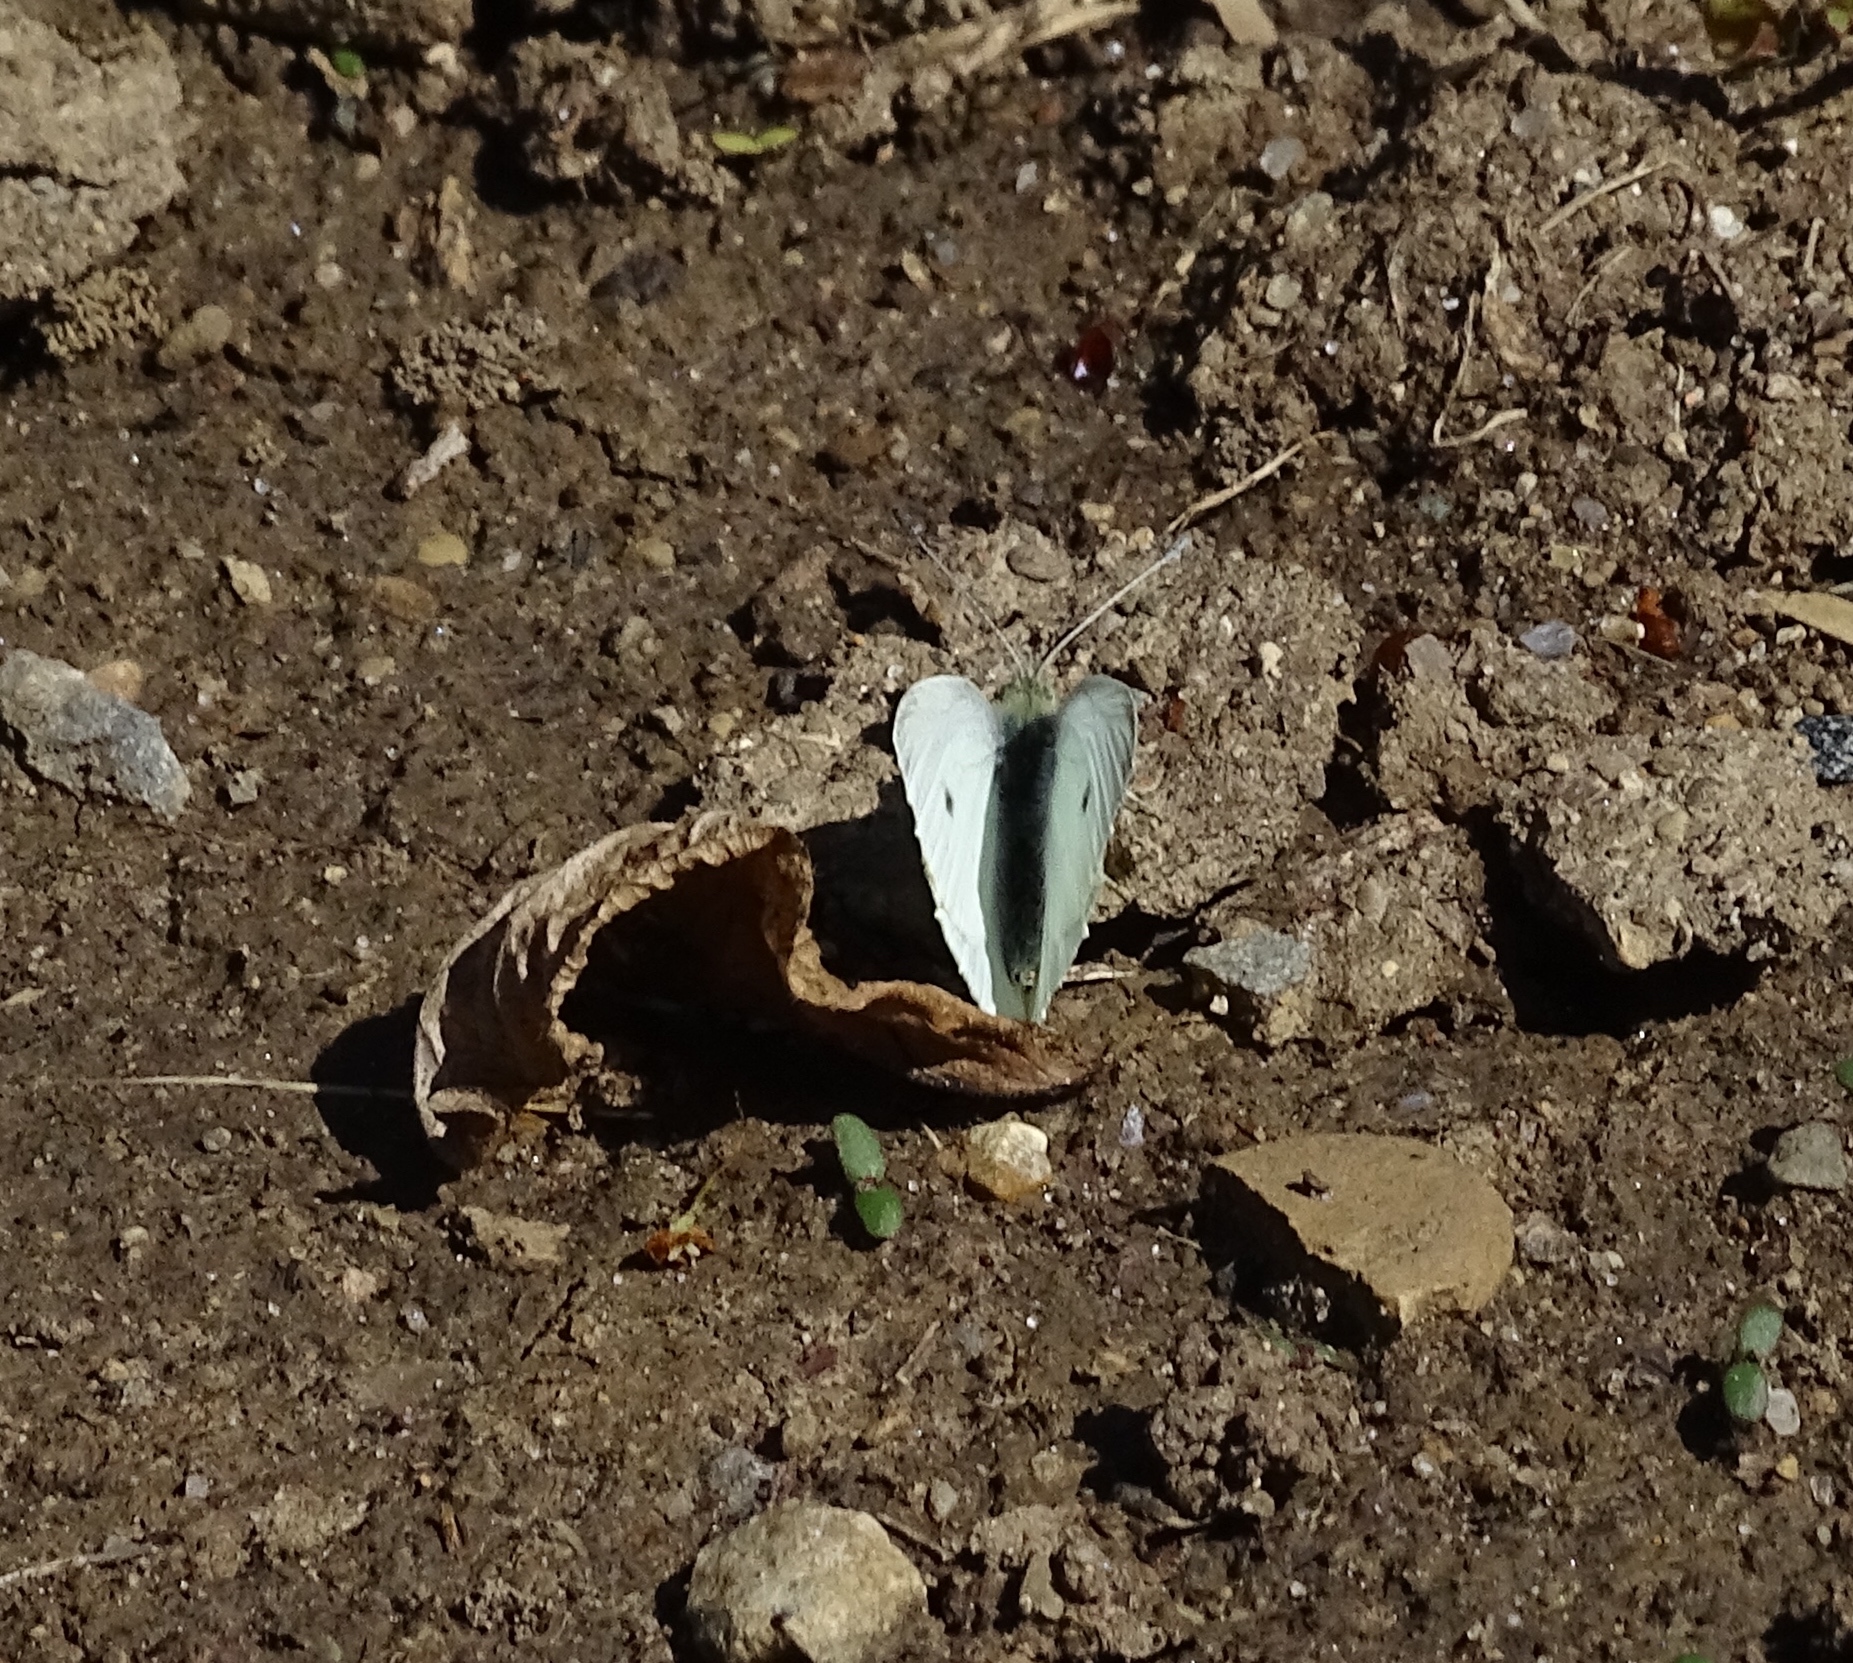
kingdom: Animalia
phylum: Arthropoda
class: Insecta
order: Lepidoptera
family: Pieridae
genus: Pieris
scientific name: Pieris rapae
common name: Small white
